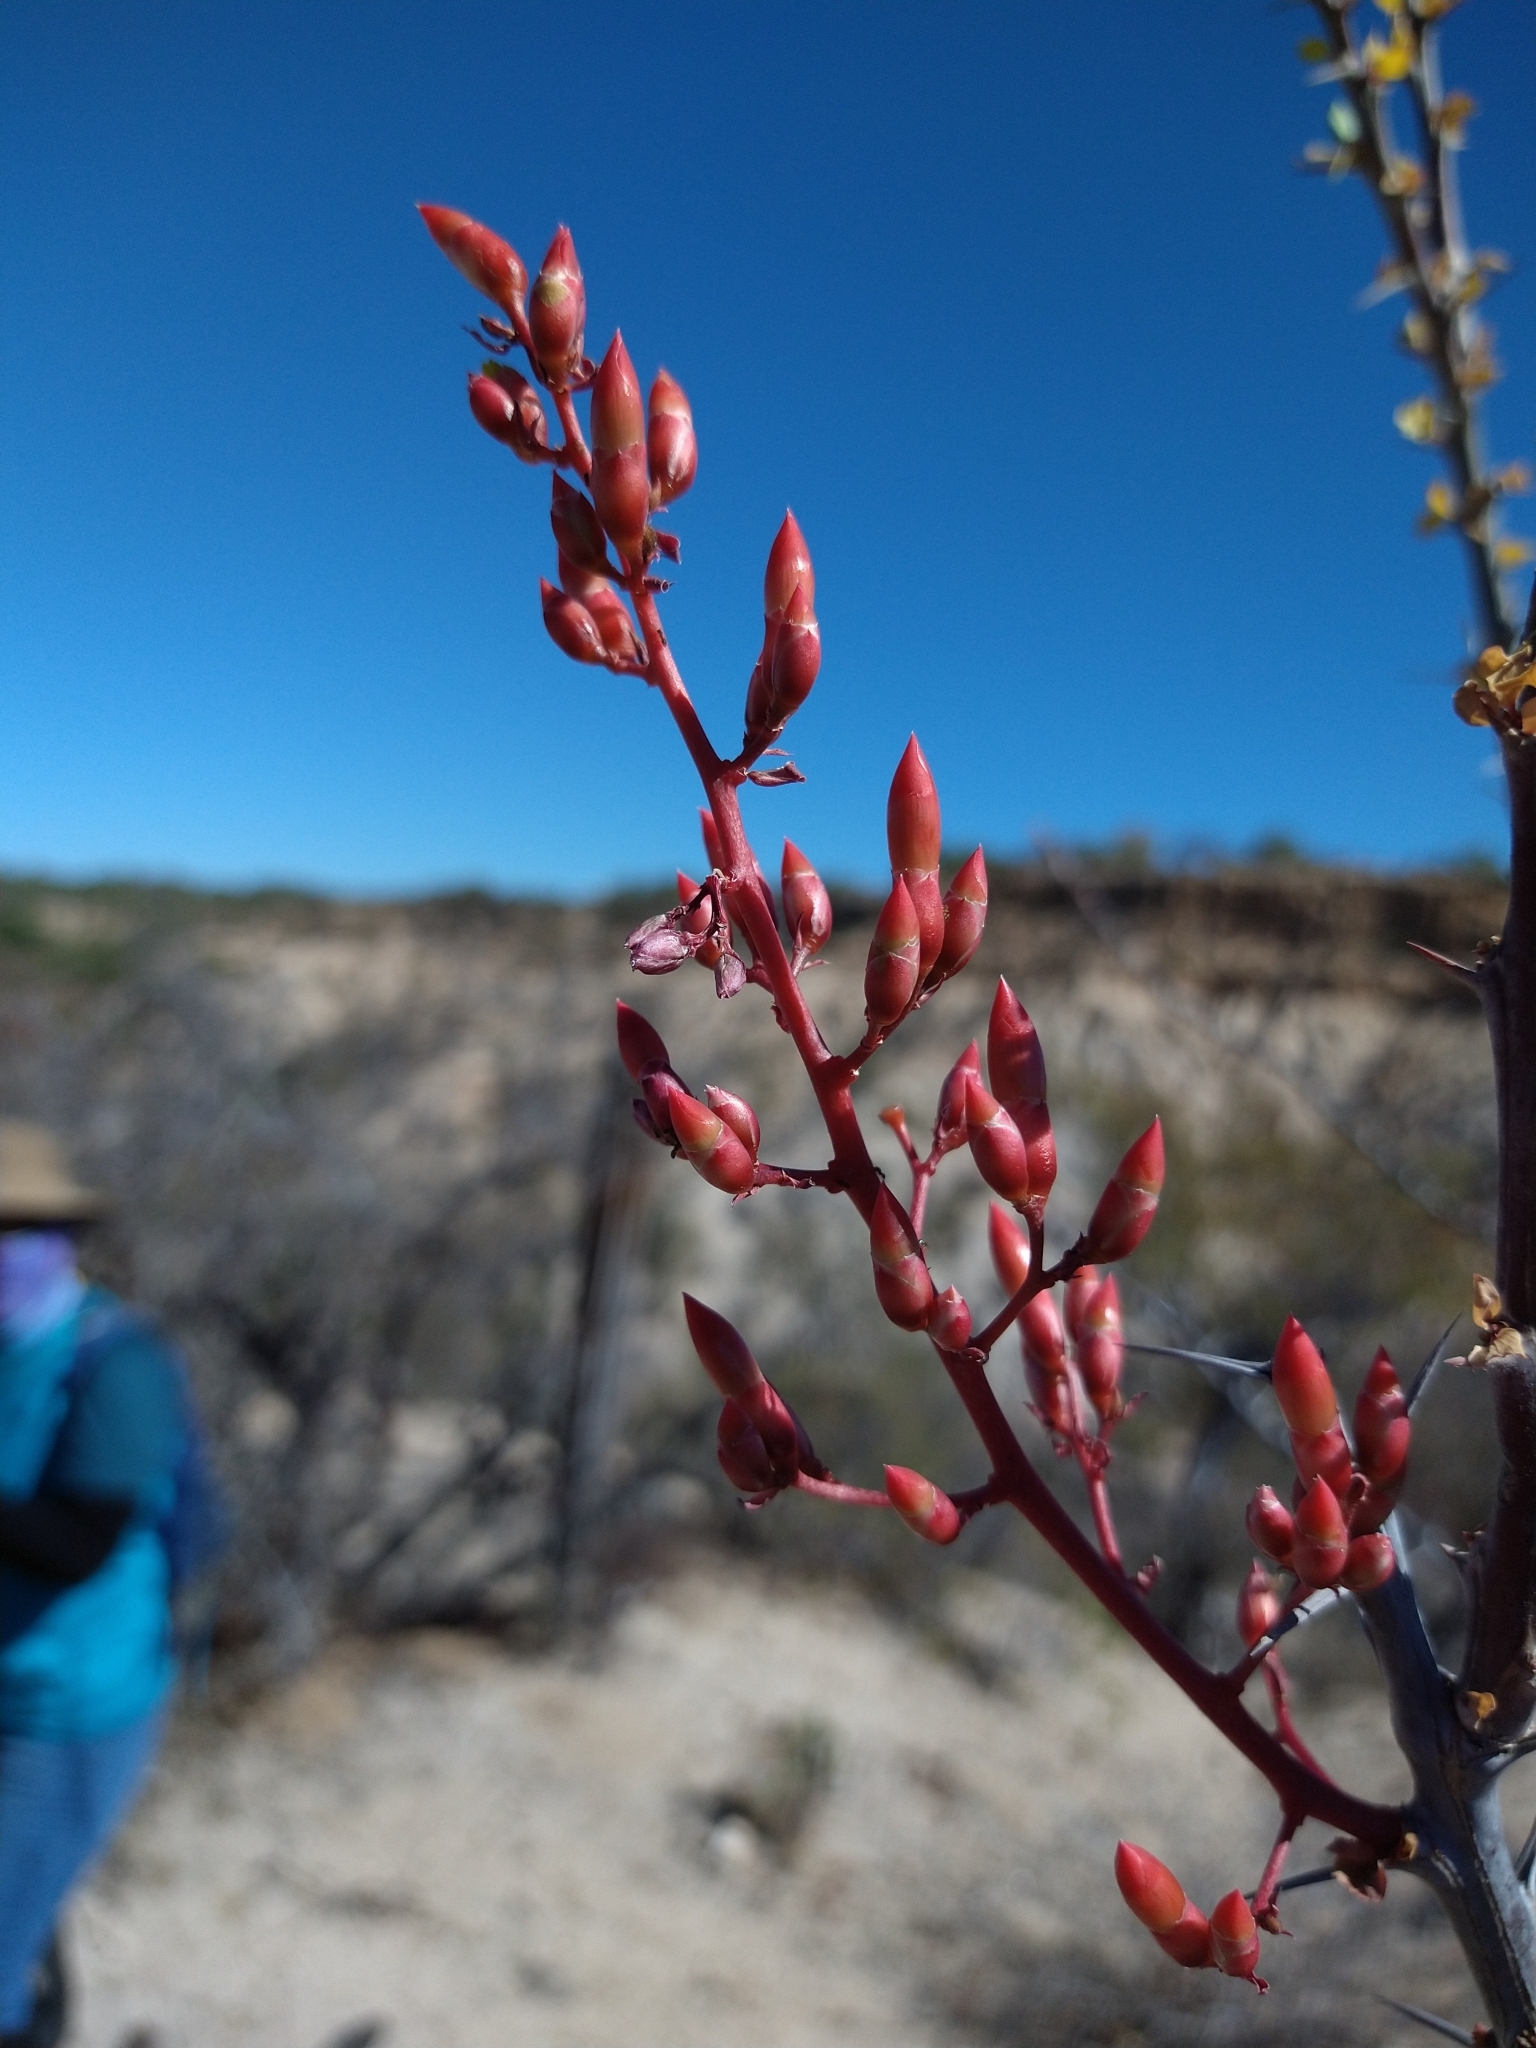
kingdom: Plantae
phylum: Tracheophyta
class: Magnoliopsida
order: Ericales
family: Fouquieriaceae
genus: Fouquieria
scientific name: Fouquieria diguetii
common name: Adam's tree
